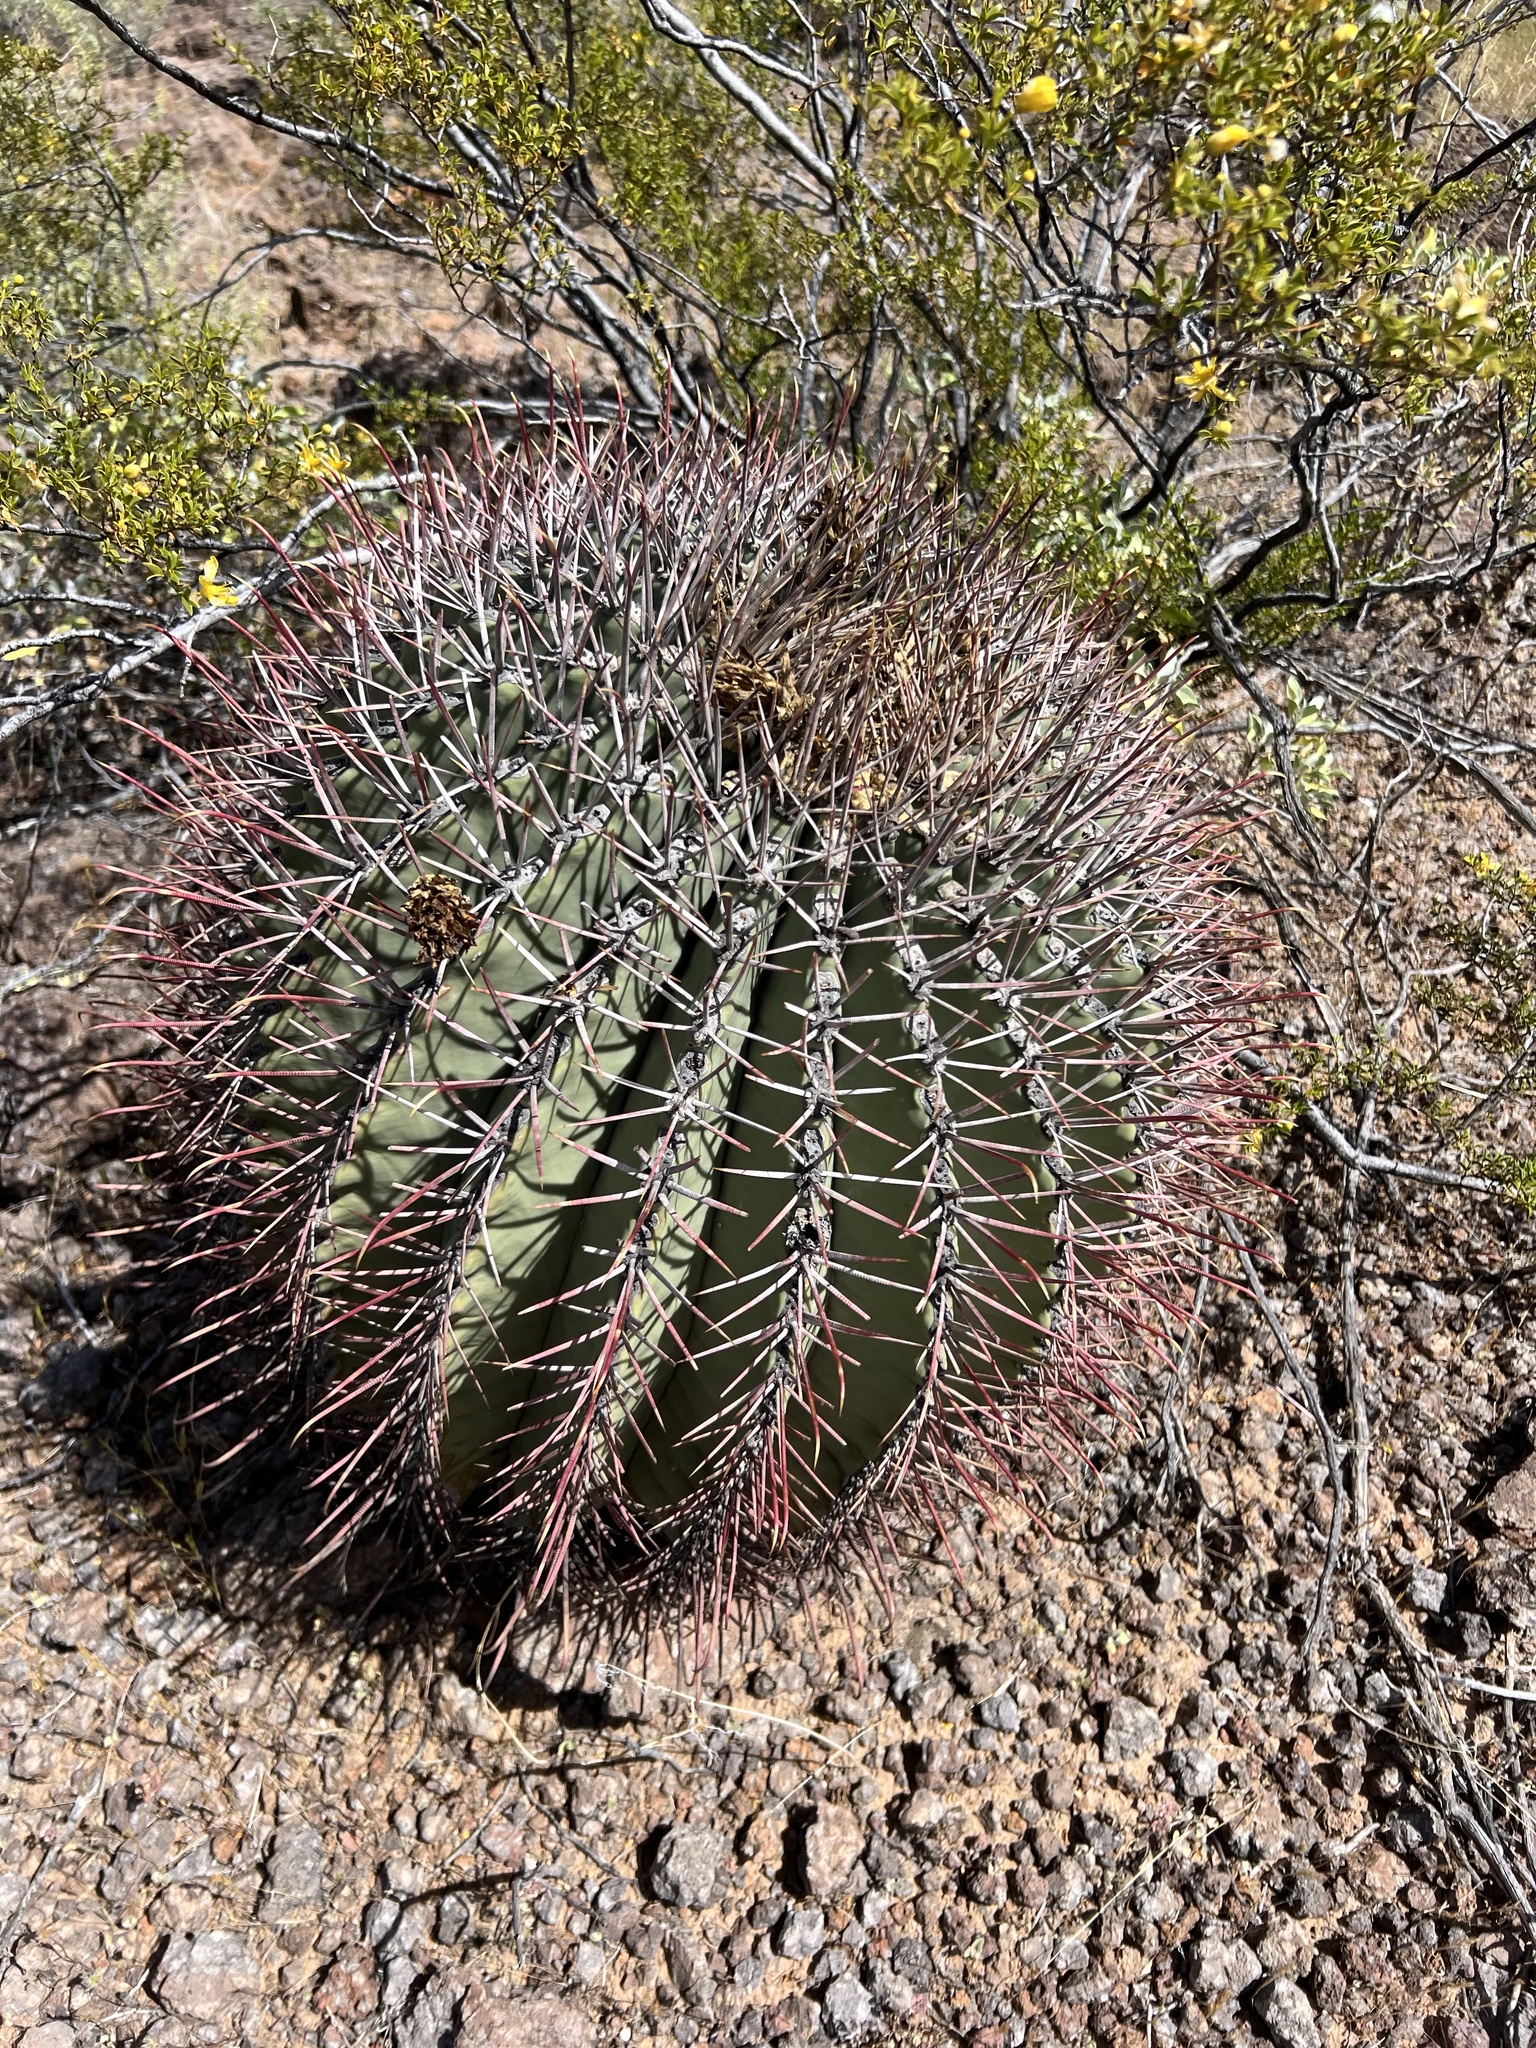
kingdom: Plantae
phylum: Tracheophyta
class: Magnoliopsida
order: Caryophyllales
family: Cactaceae
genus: Ferocactus
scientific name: Ferocactus emoryi
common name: Emory's barrel cactus
